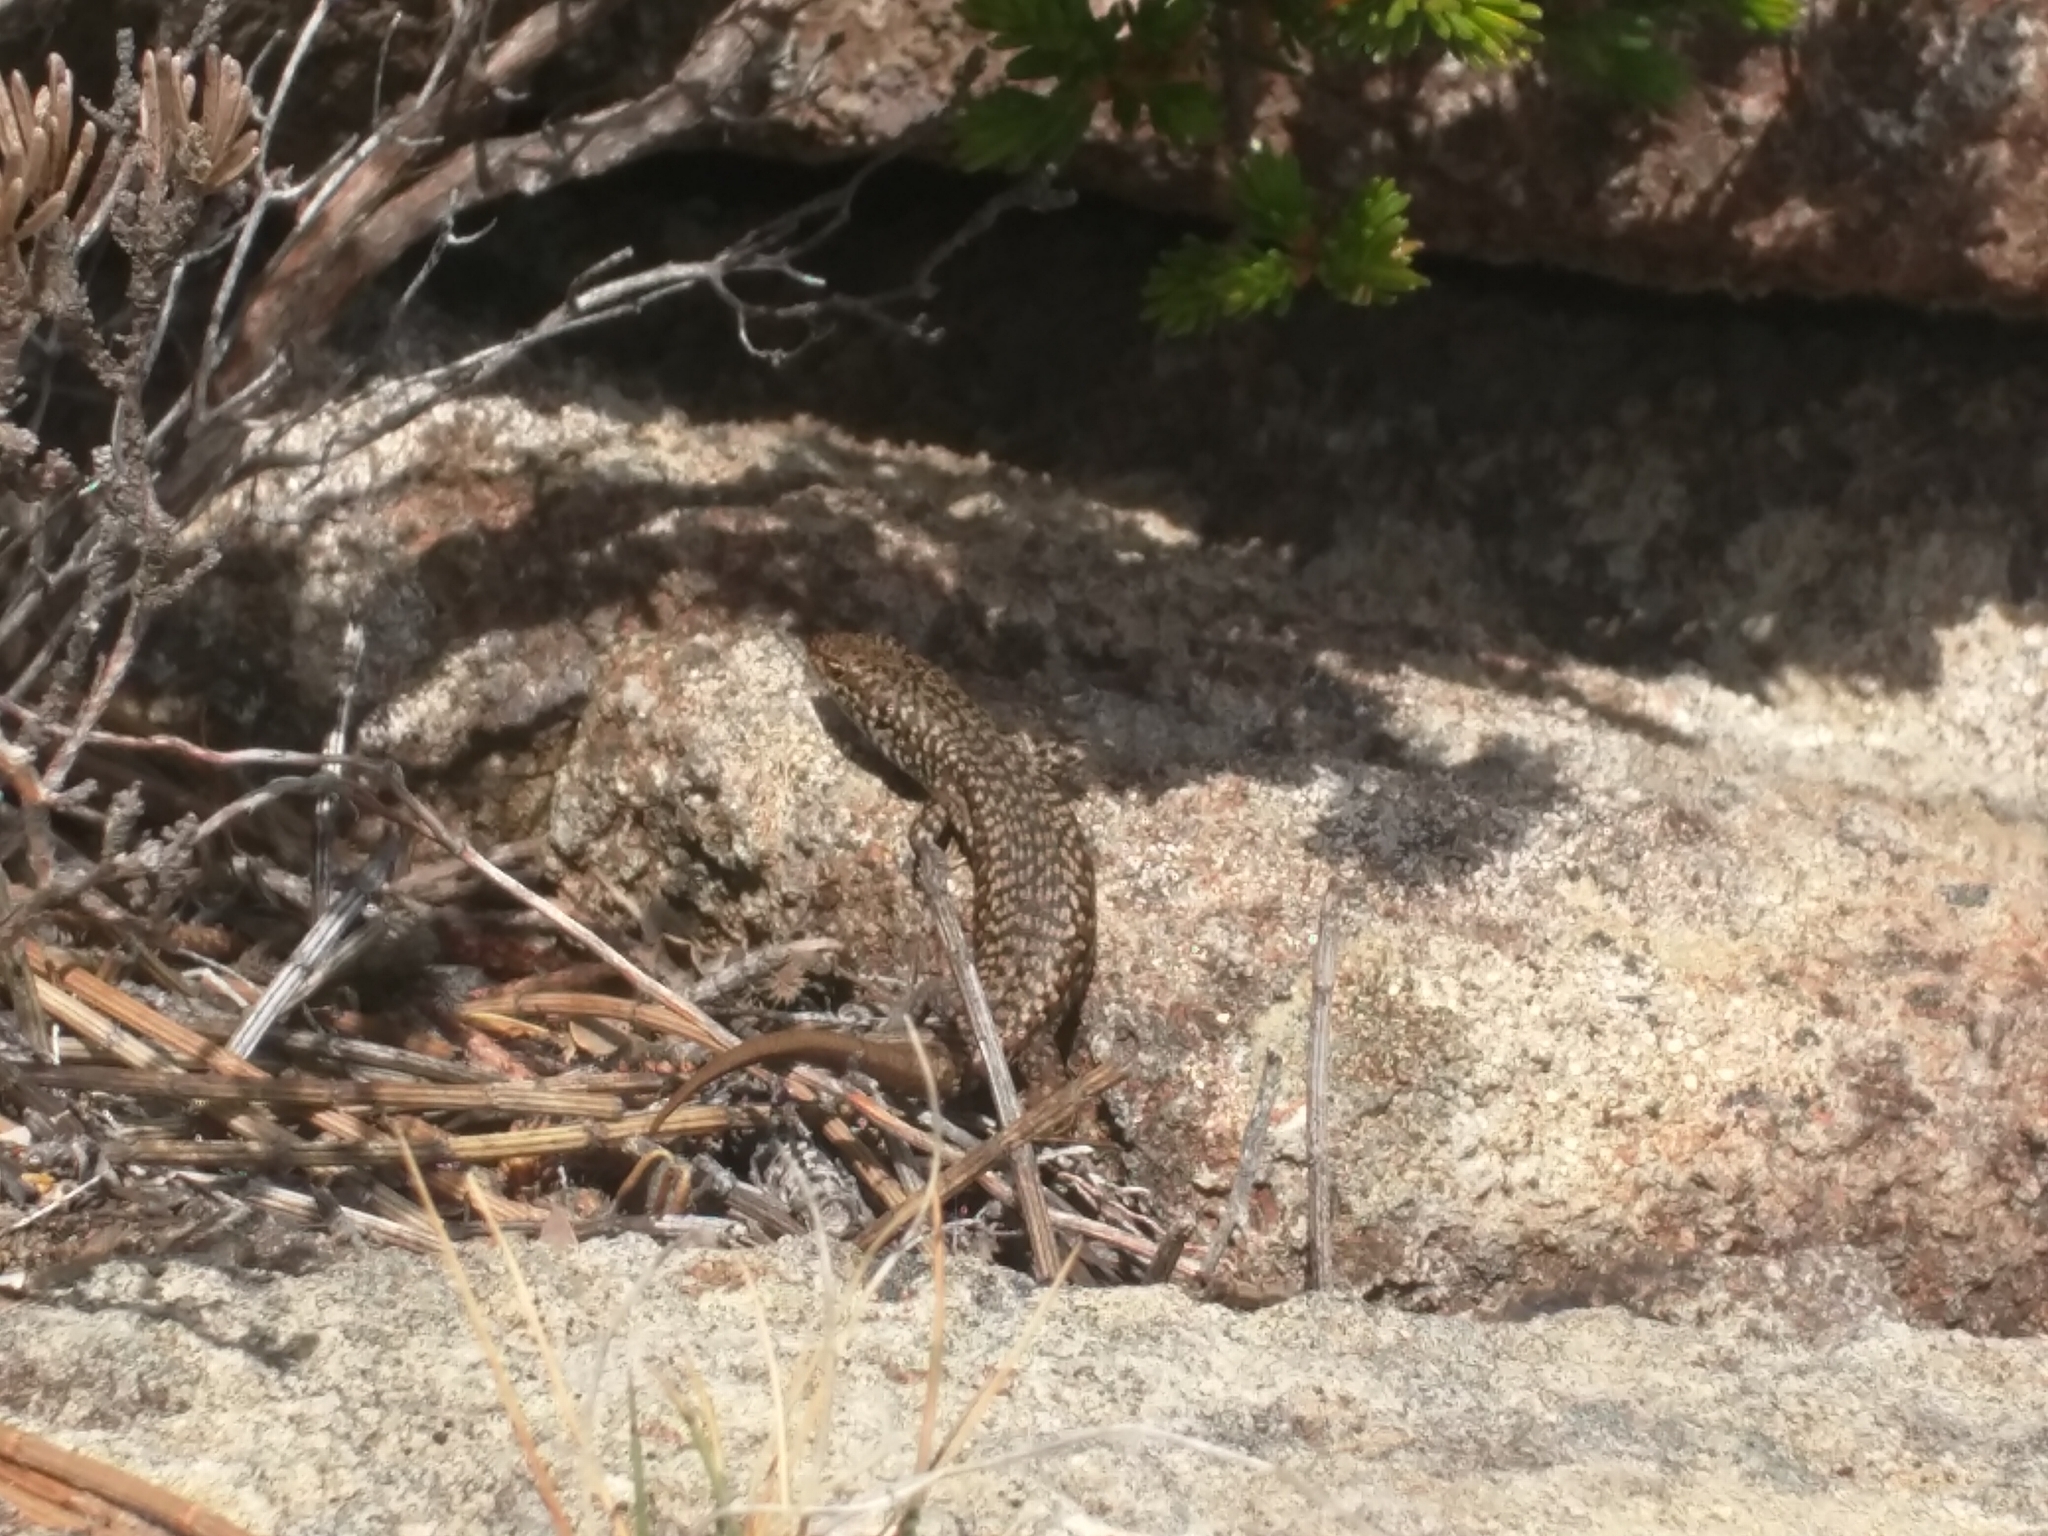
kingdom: Animalia
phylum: Chordata
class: Squamata
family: Scincidae
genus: Carinascincus
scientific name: Carinascincus ocellatus
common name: Ocellated cool-skink
